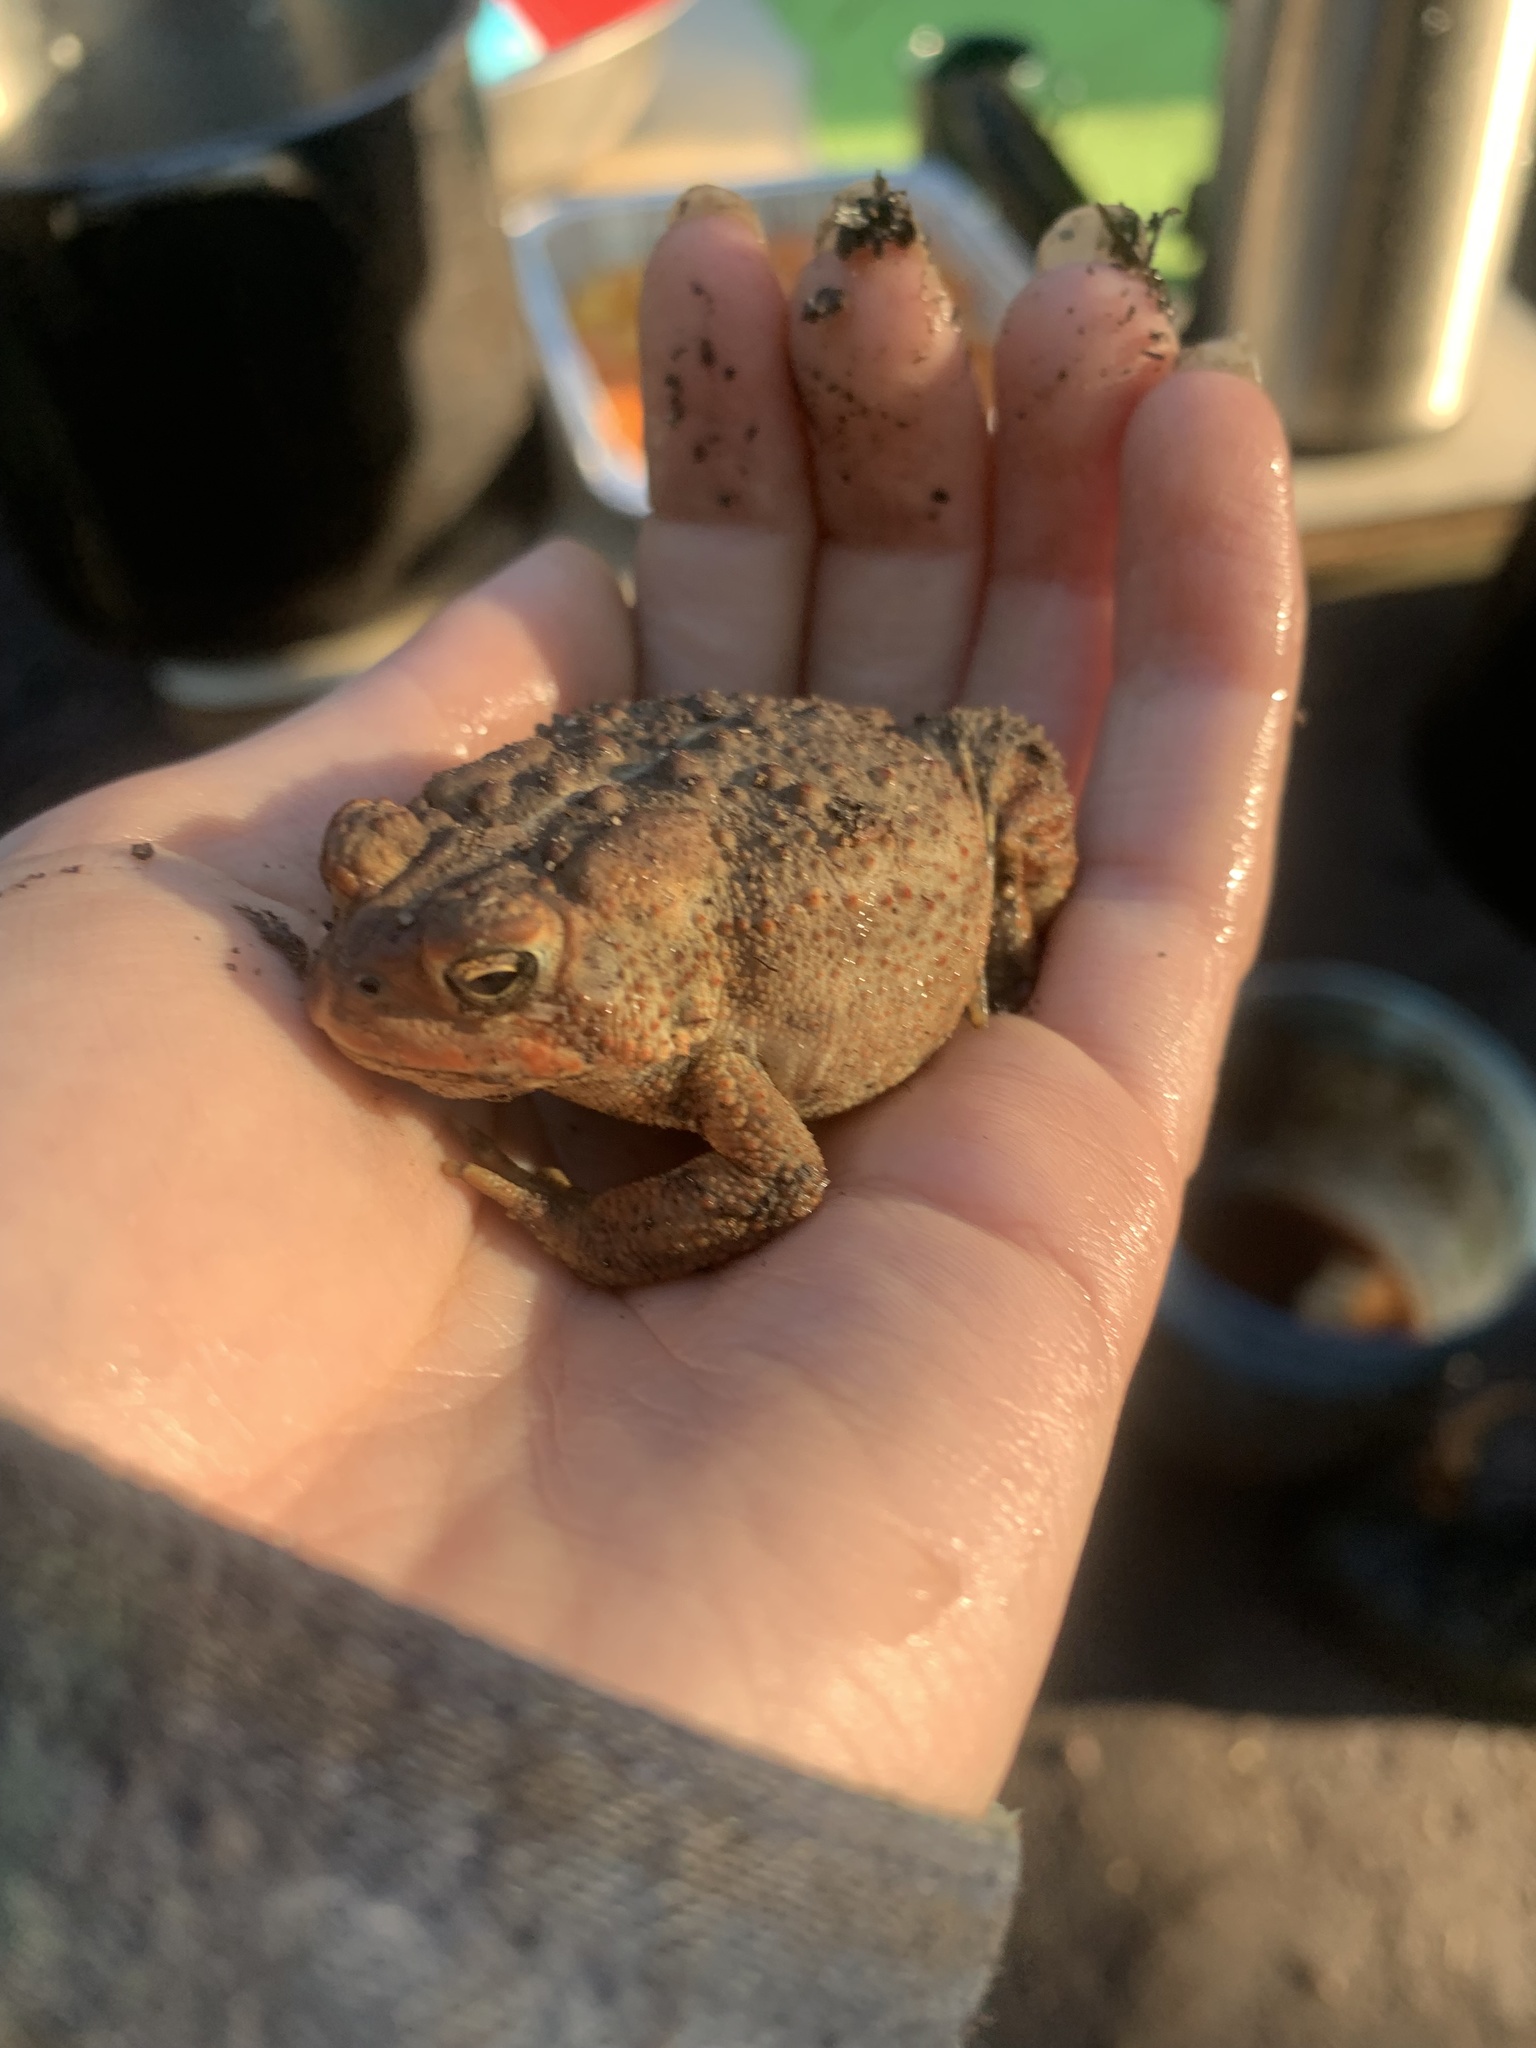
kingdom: Animalia
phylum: Chordata
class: Amphibia
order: Anura
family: Bufonidae
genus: Anaxyrus
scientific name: Anaxyrus americanus
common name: American toad
